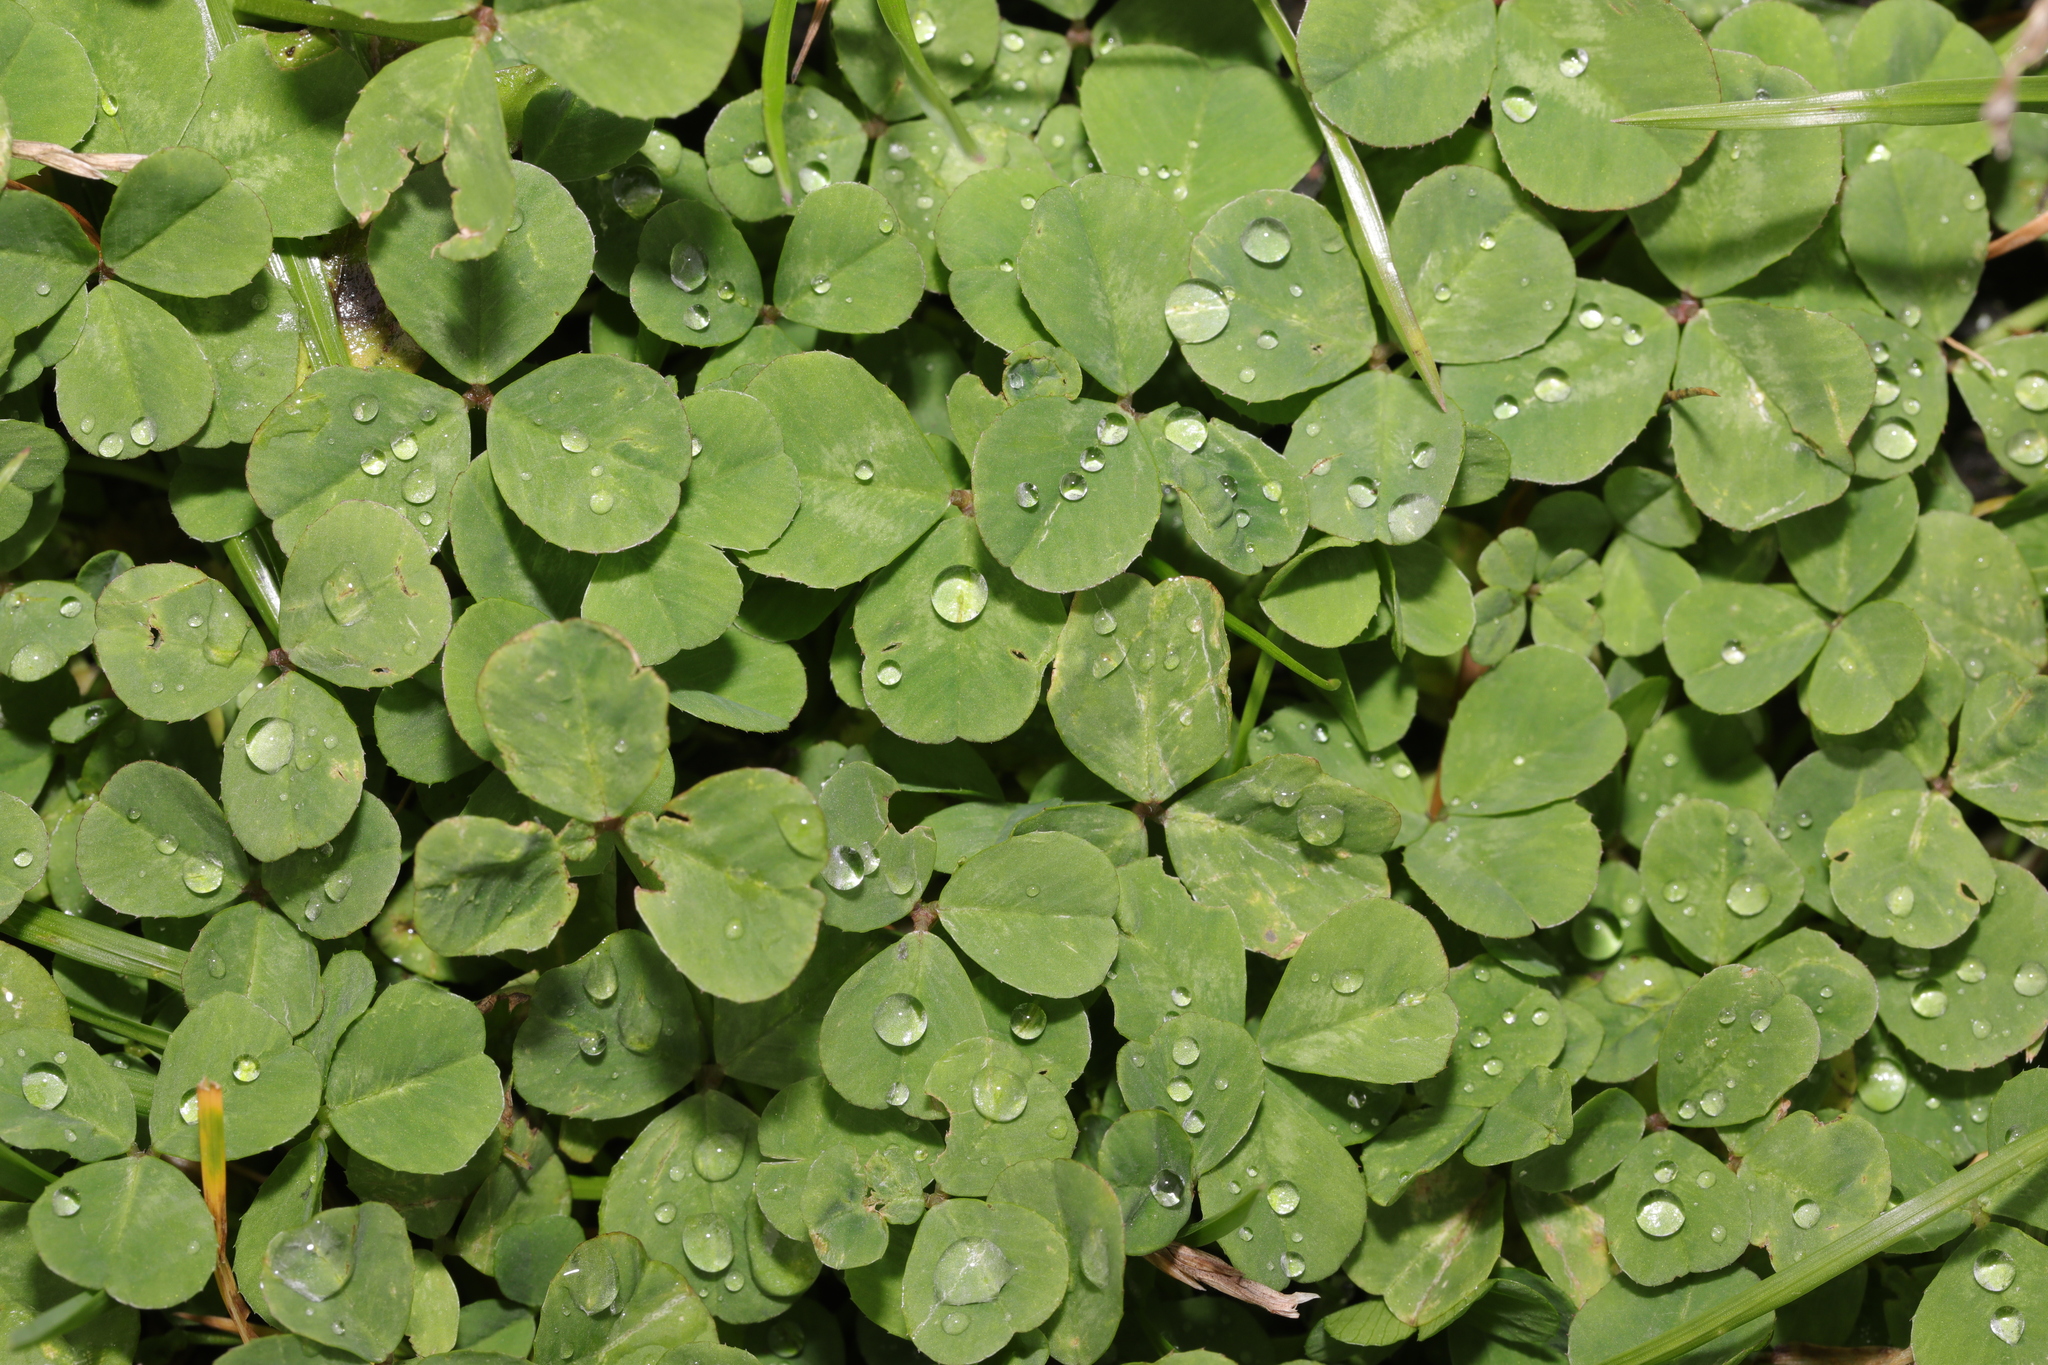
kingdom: Plantae
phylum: Tracheophyta
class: Magnoliopsida
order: Fabales
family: Fabaceae
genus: Trifolium
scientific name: Trifolium repens
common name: White clover
